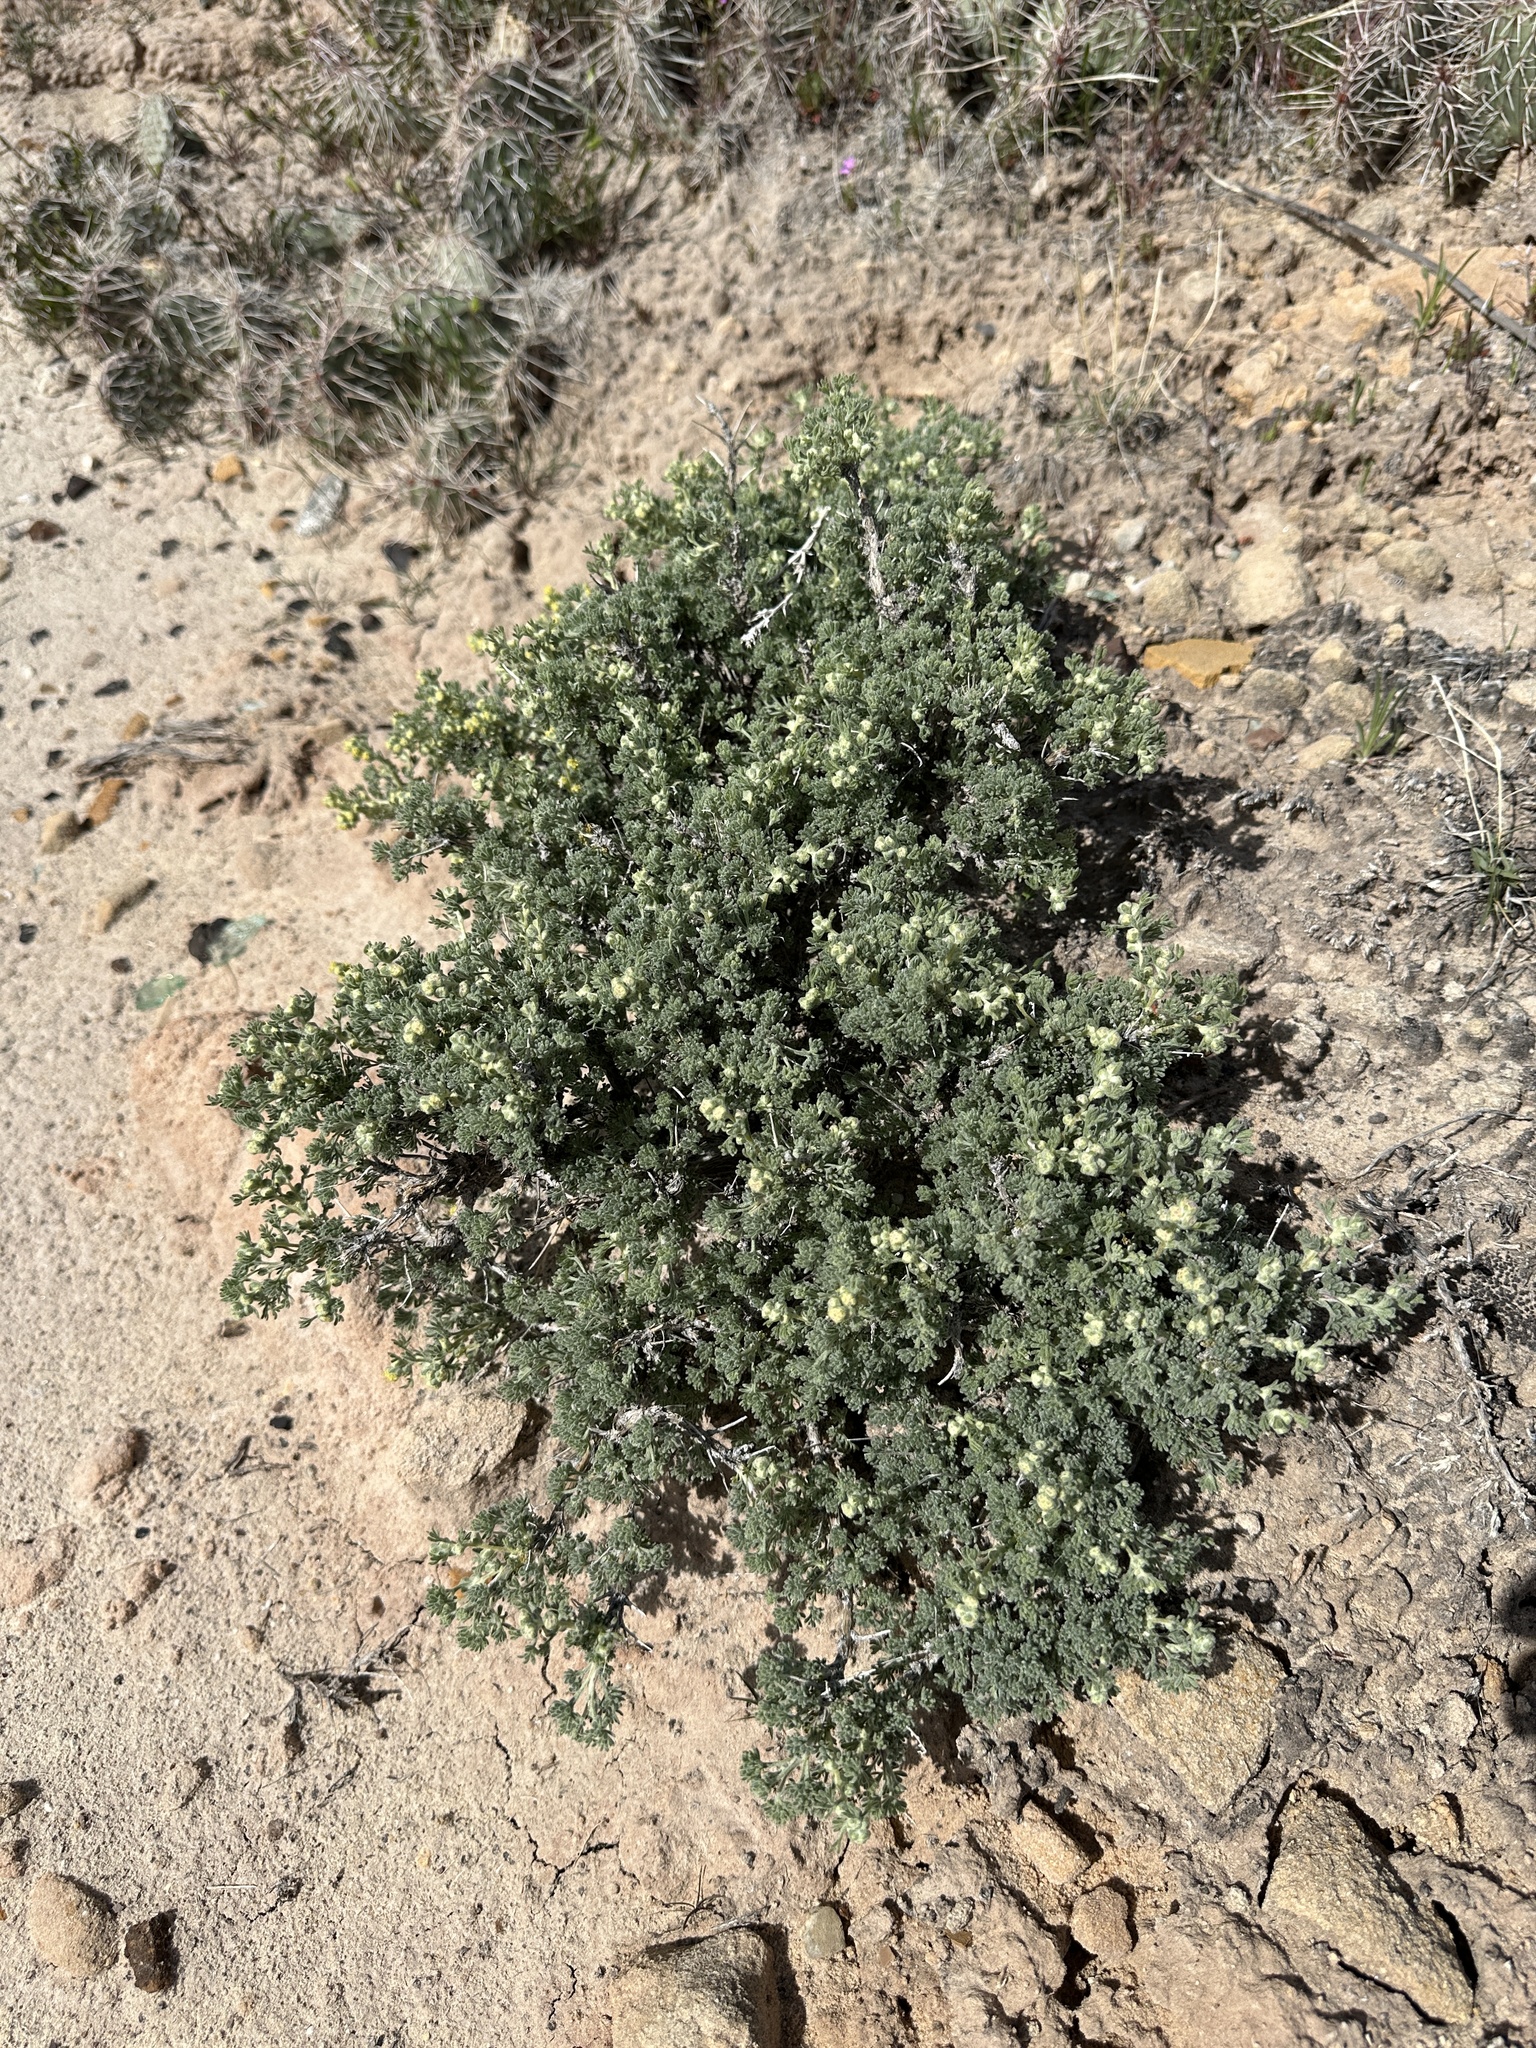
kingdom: Plantae
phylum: Tracheophyta
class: Magnoliopsida
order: Asterales
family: Asteraceae
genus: Artemisia
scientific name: Artemisia spinescens
